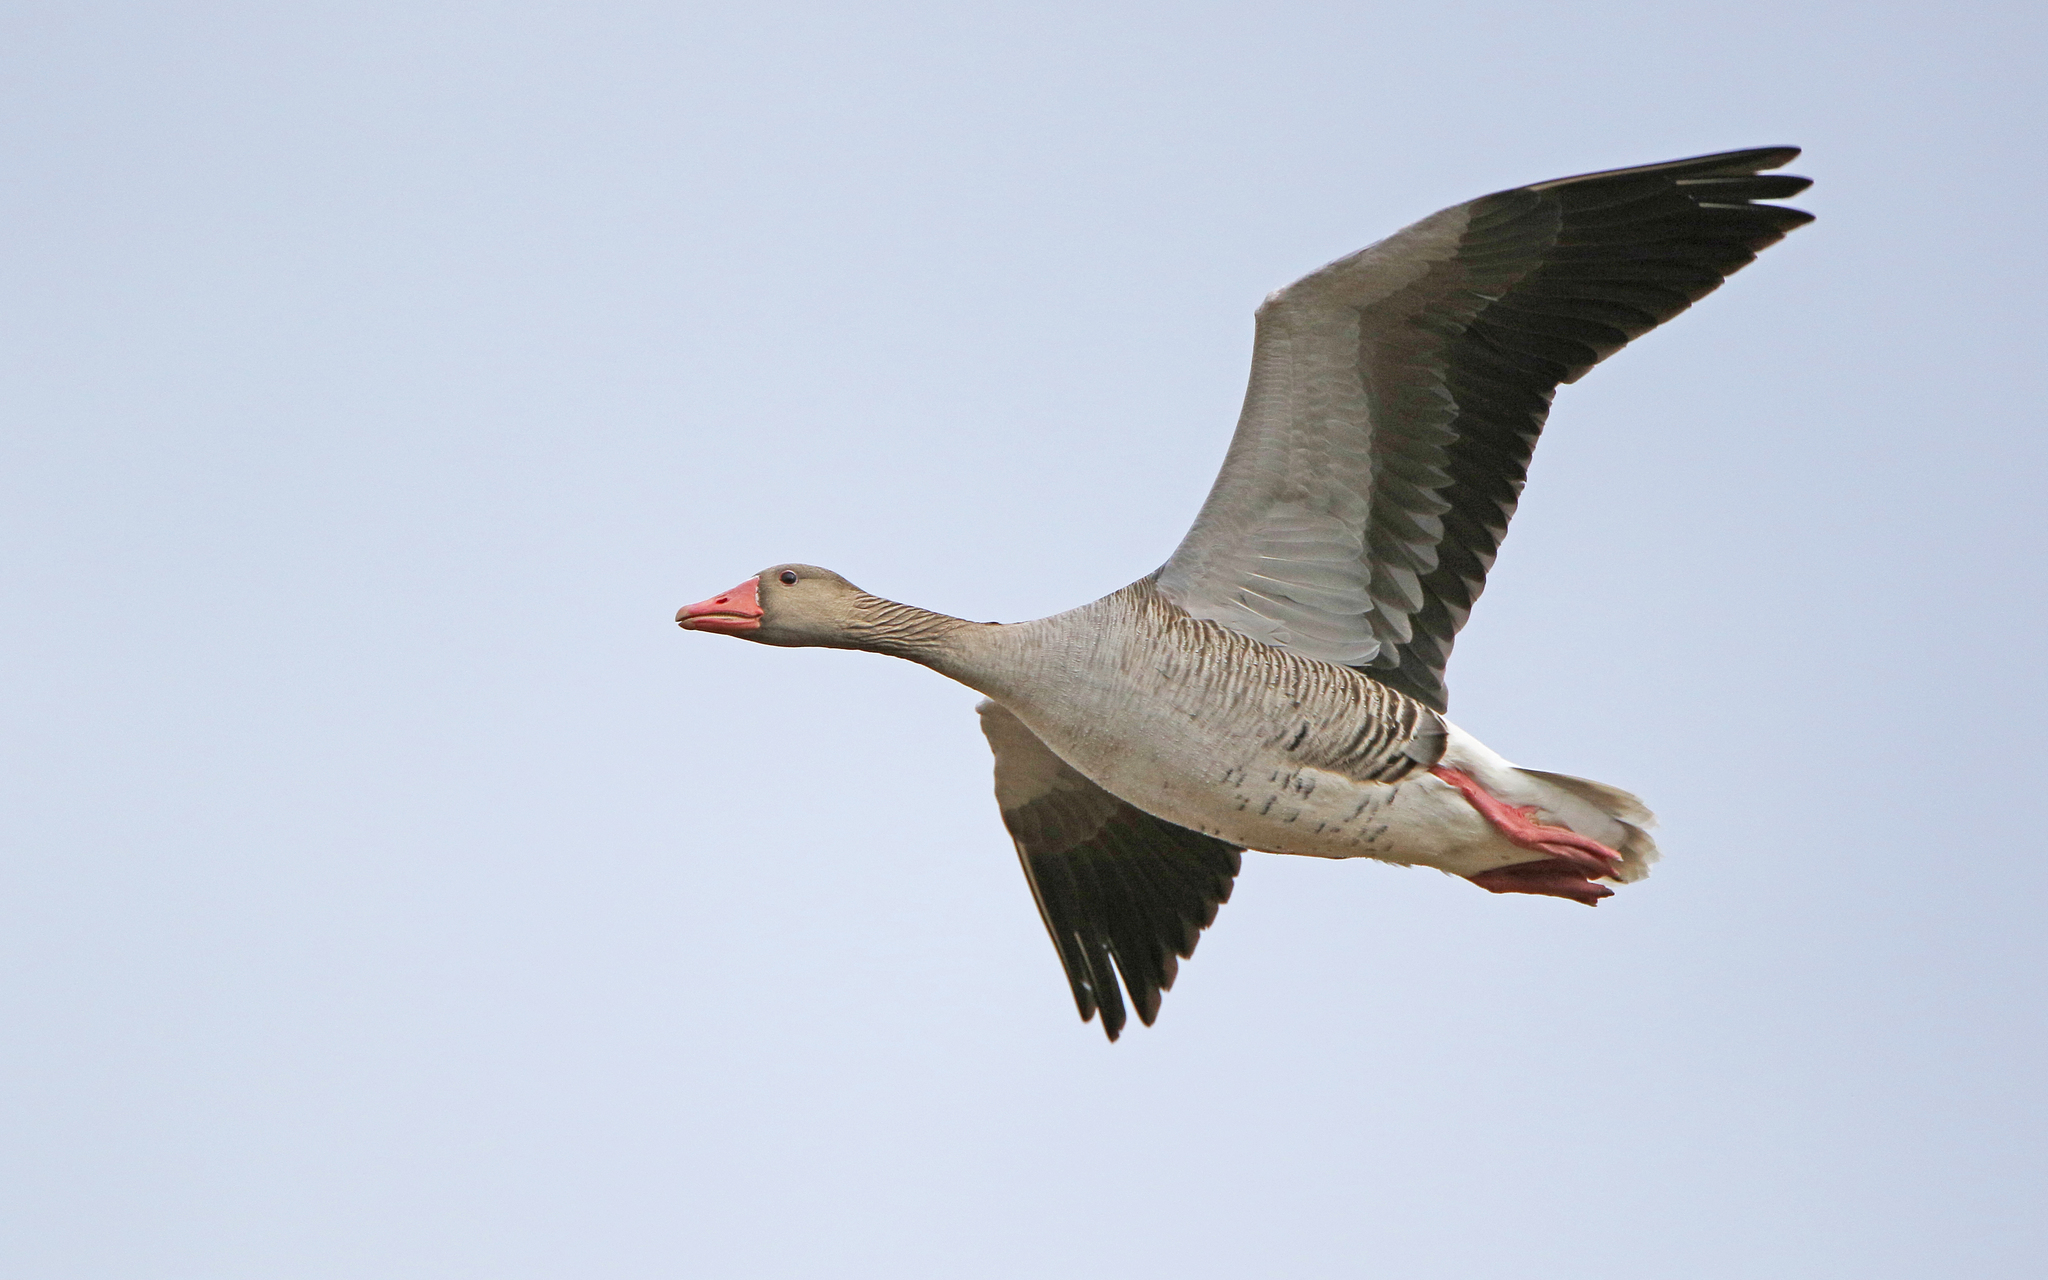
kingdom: Animalia
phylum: Chordata
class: Aves
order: Anseriformes
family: Anatidae
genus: Anser
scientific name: Anser anser
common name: Greylag goose
